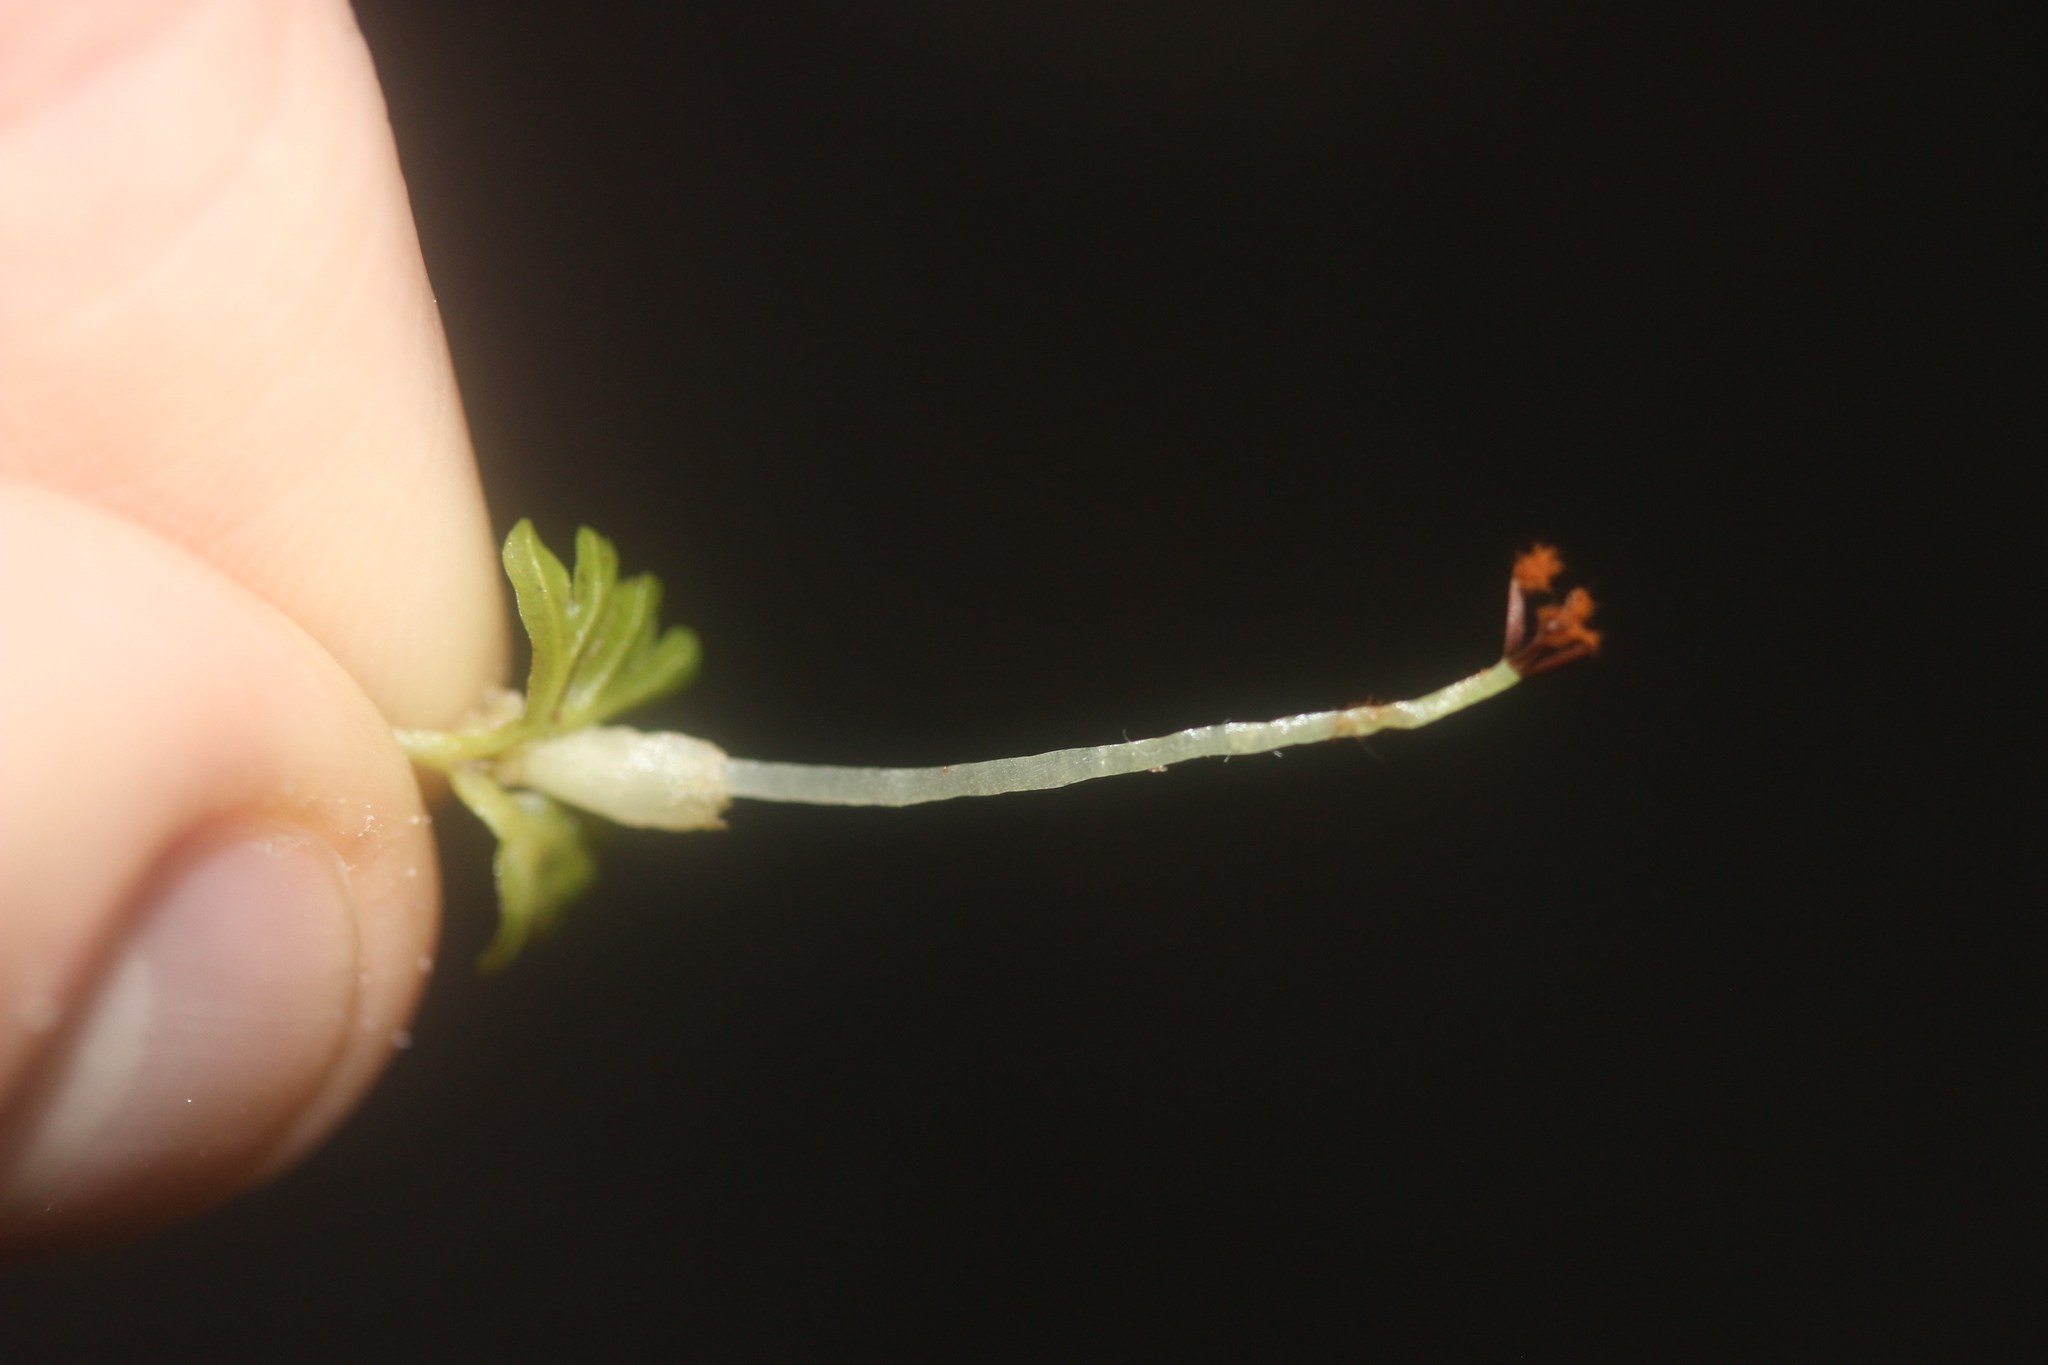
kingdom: Plantae
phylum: Marchantiophyta
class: Jungermanniopsida
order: Pallaviciniales
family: Pallaviciniaceae
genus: Symphyogyna
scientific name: Symphyogyna hymenophyllum
